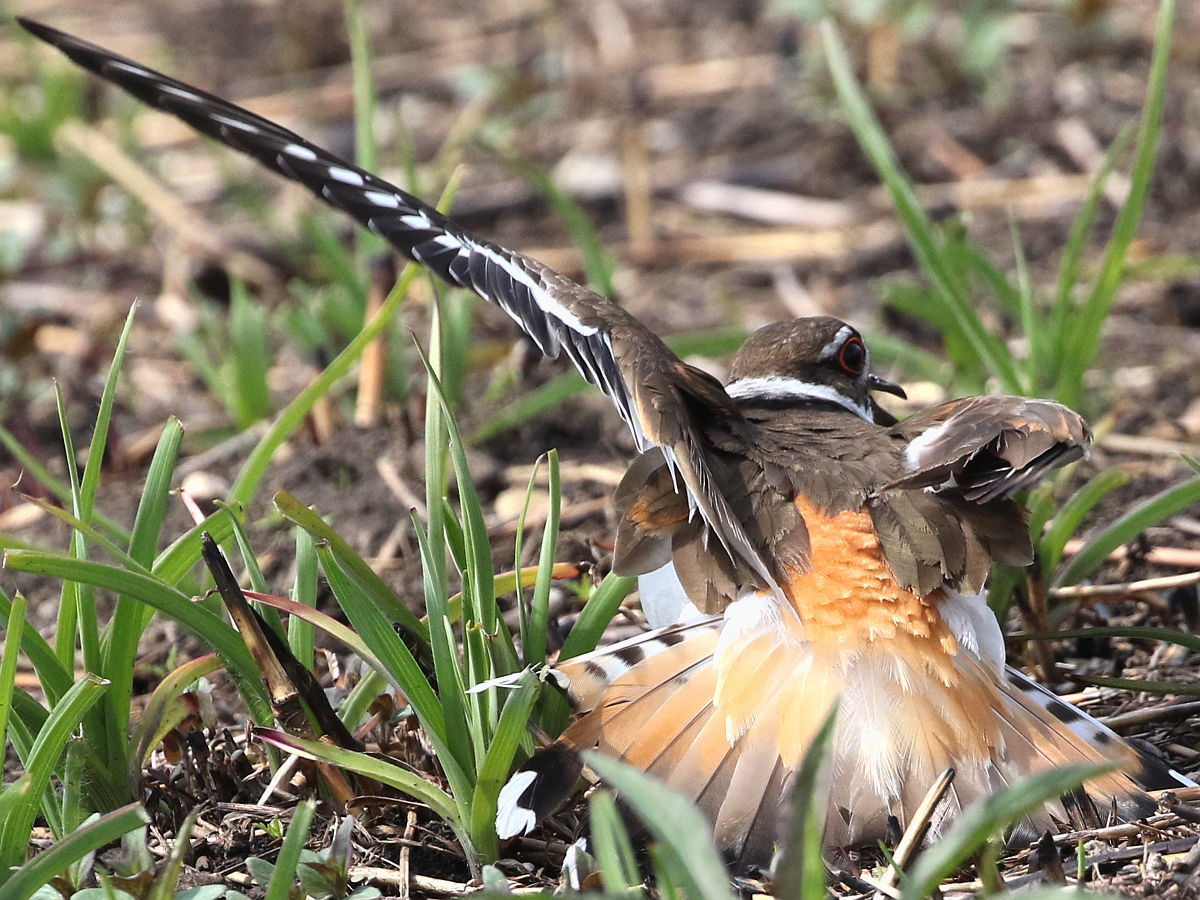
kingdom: Animalia
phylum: Chordata
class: Aves
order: Charadriiformes
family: Charadriidae
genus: Charadrius
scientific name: Charadrius vociferus
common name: Killdeer
